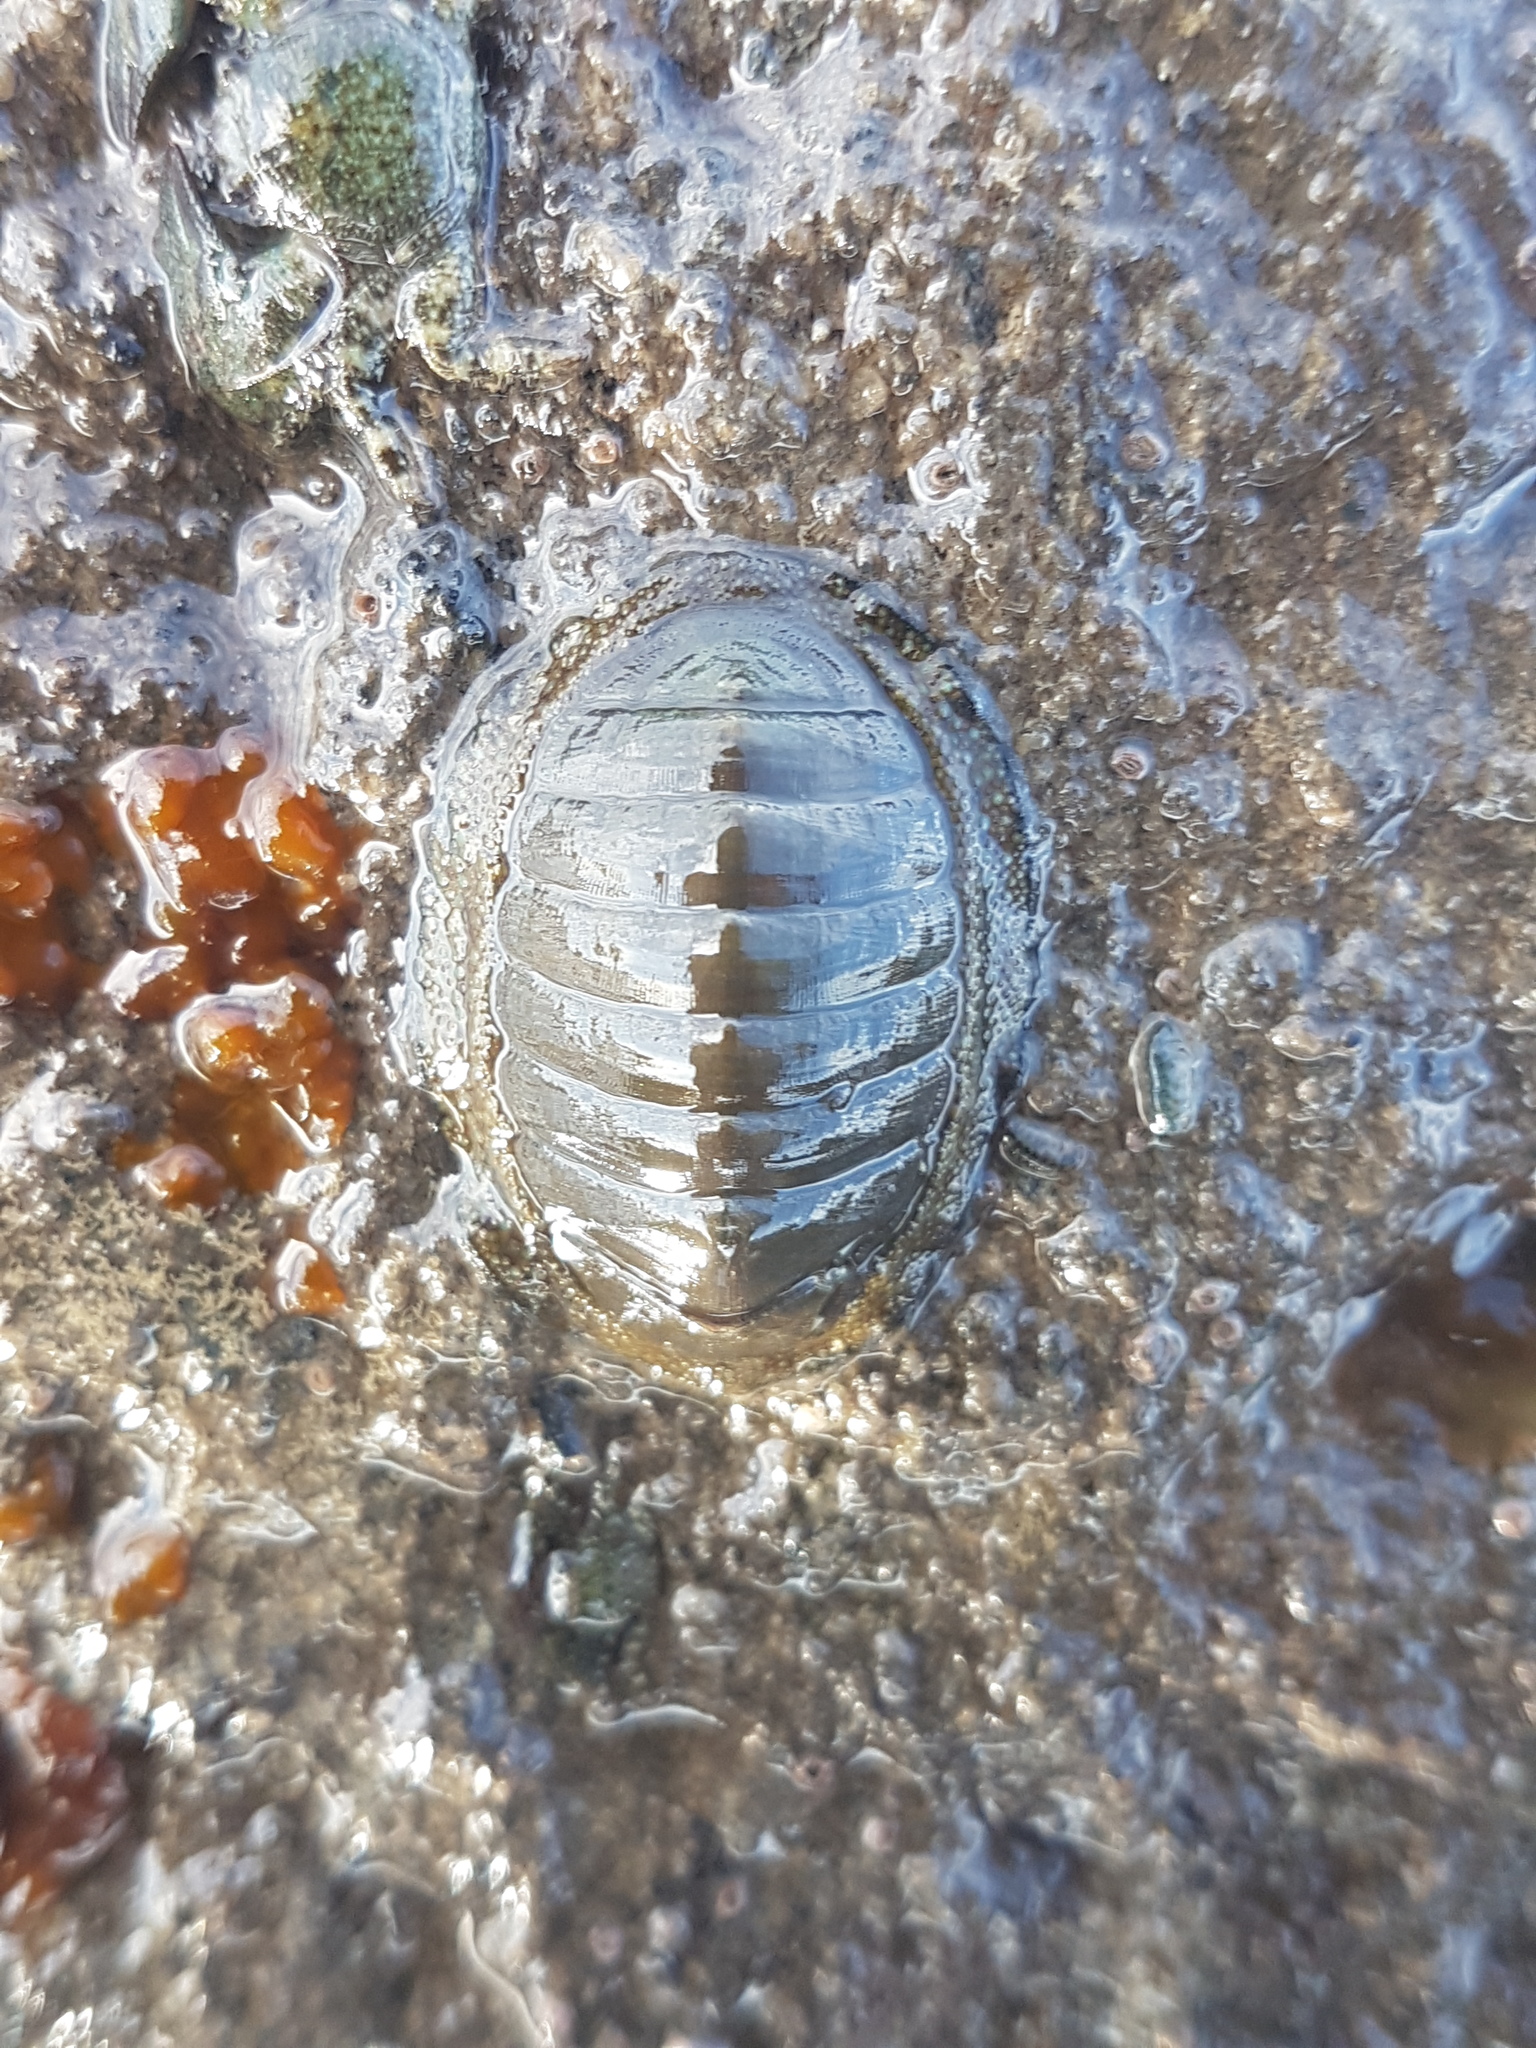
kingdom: Animalia
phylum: Mollusca
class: Polyplacophora
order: Chitonida
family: Chitonidae
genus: Chiton
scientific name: Chiton glaucus
